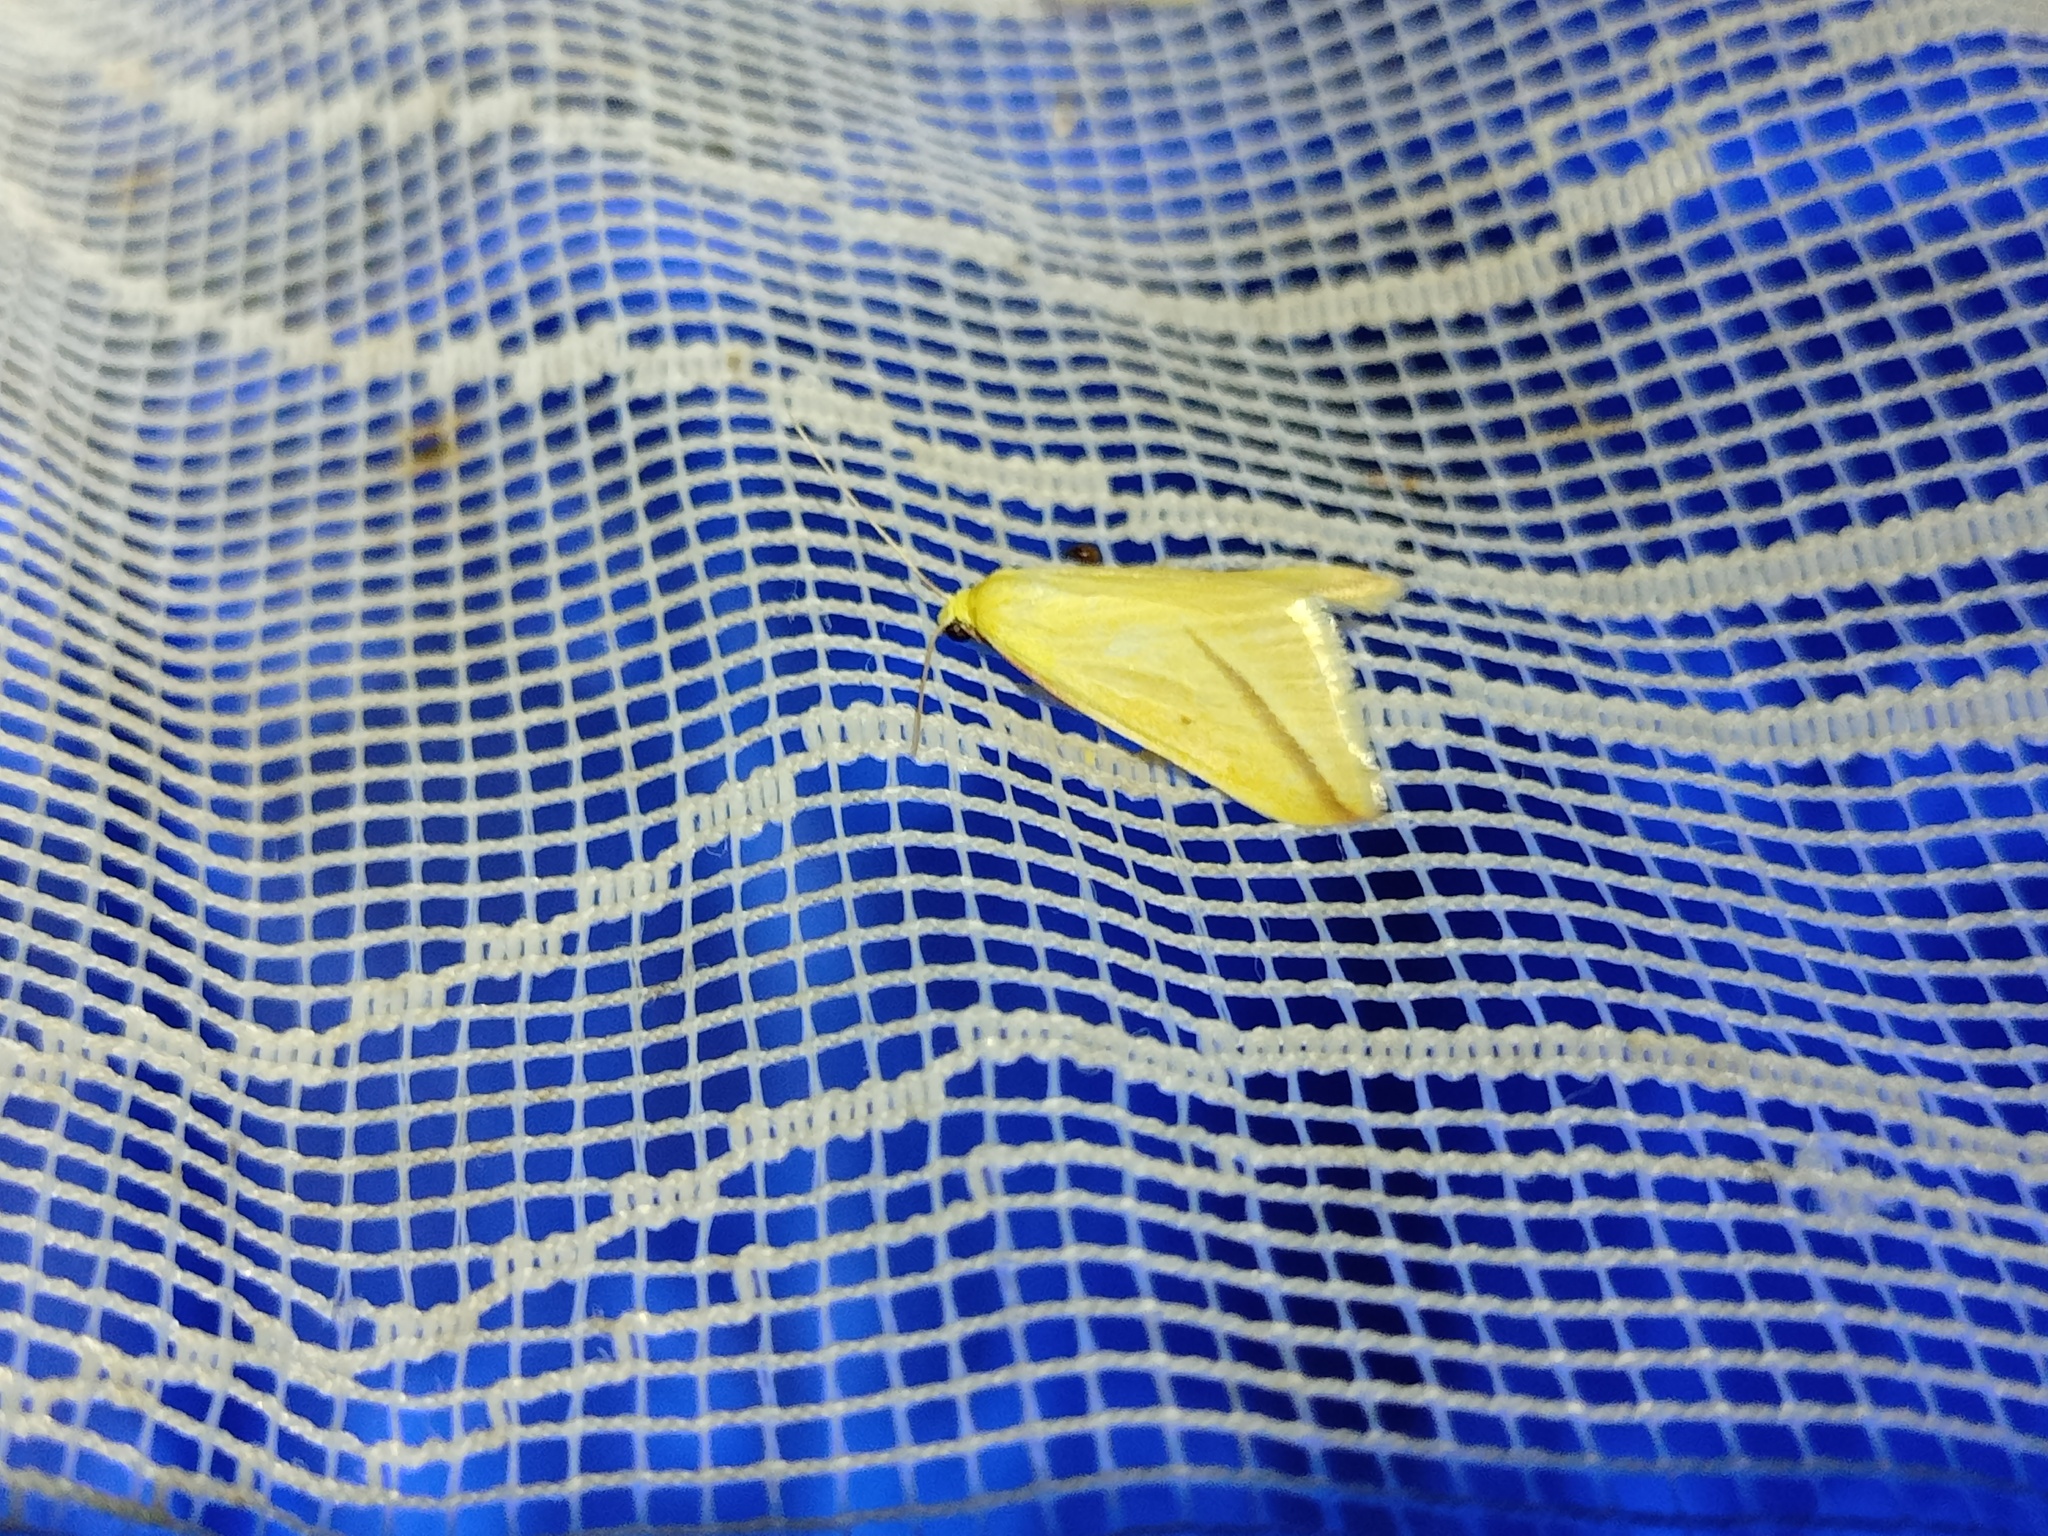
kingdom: Animalia
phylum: Arthropoda
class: Insecta
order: Lepidoptera
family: Geometridae
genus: Rhodometra
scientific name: Rhodometra sacraria
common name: Vestal
